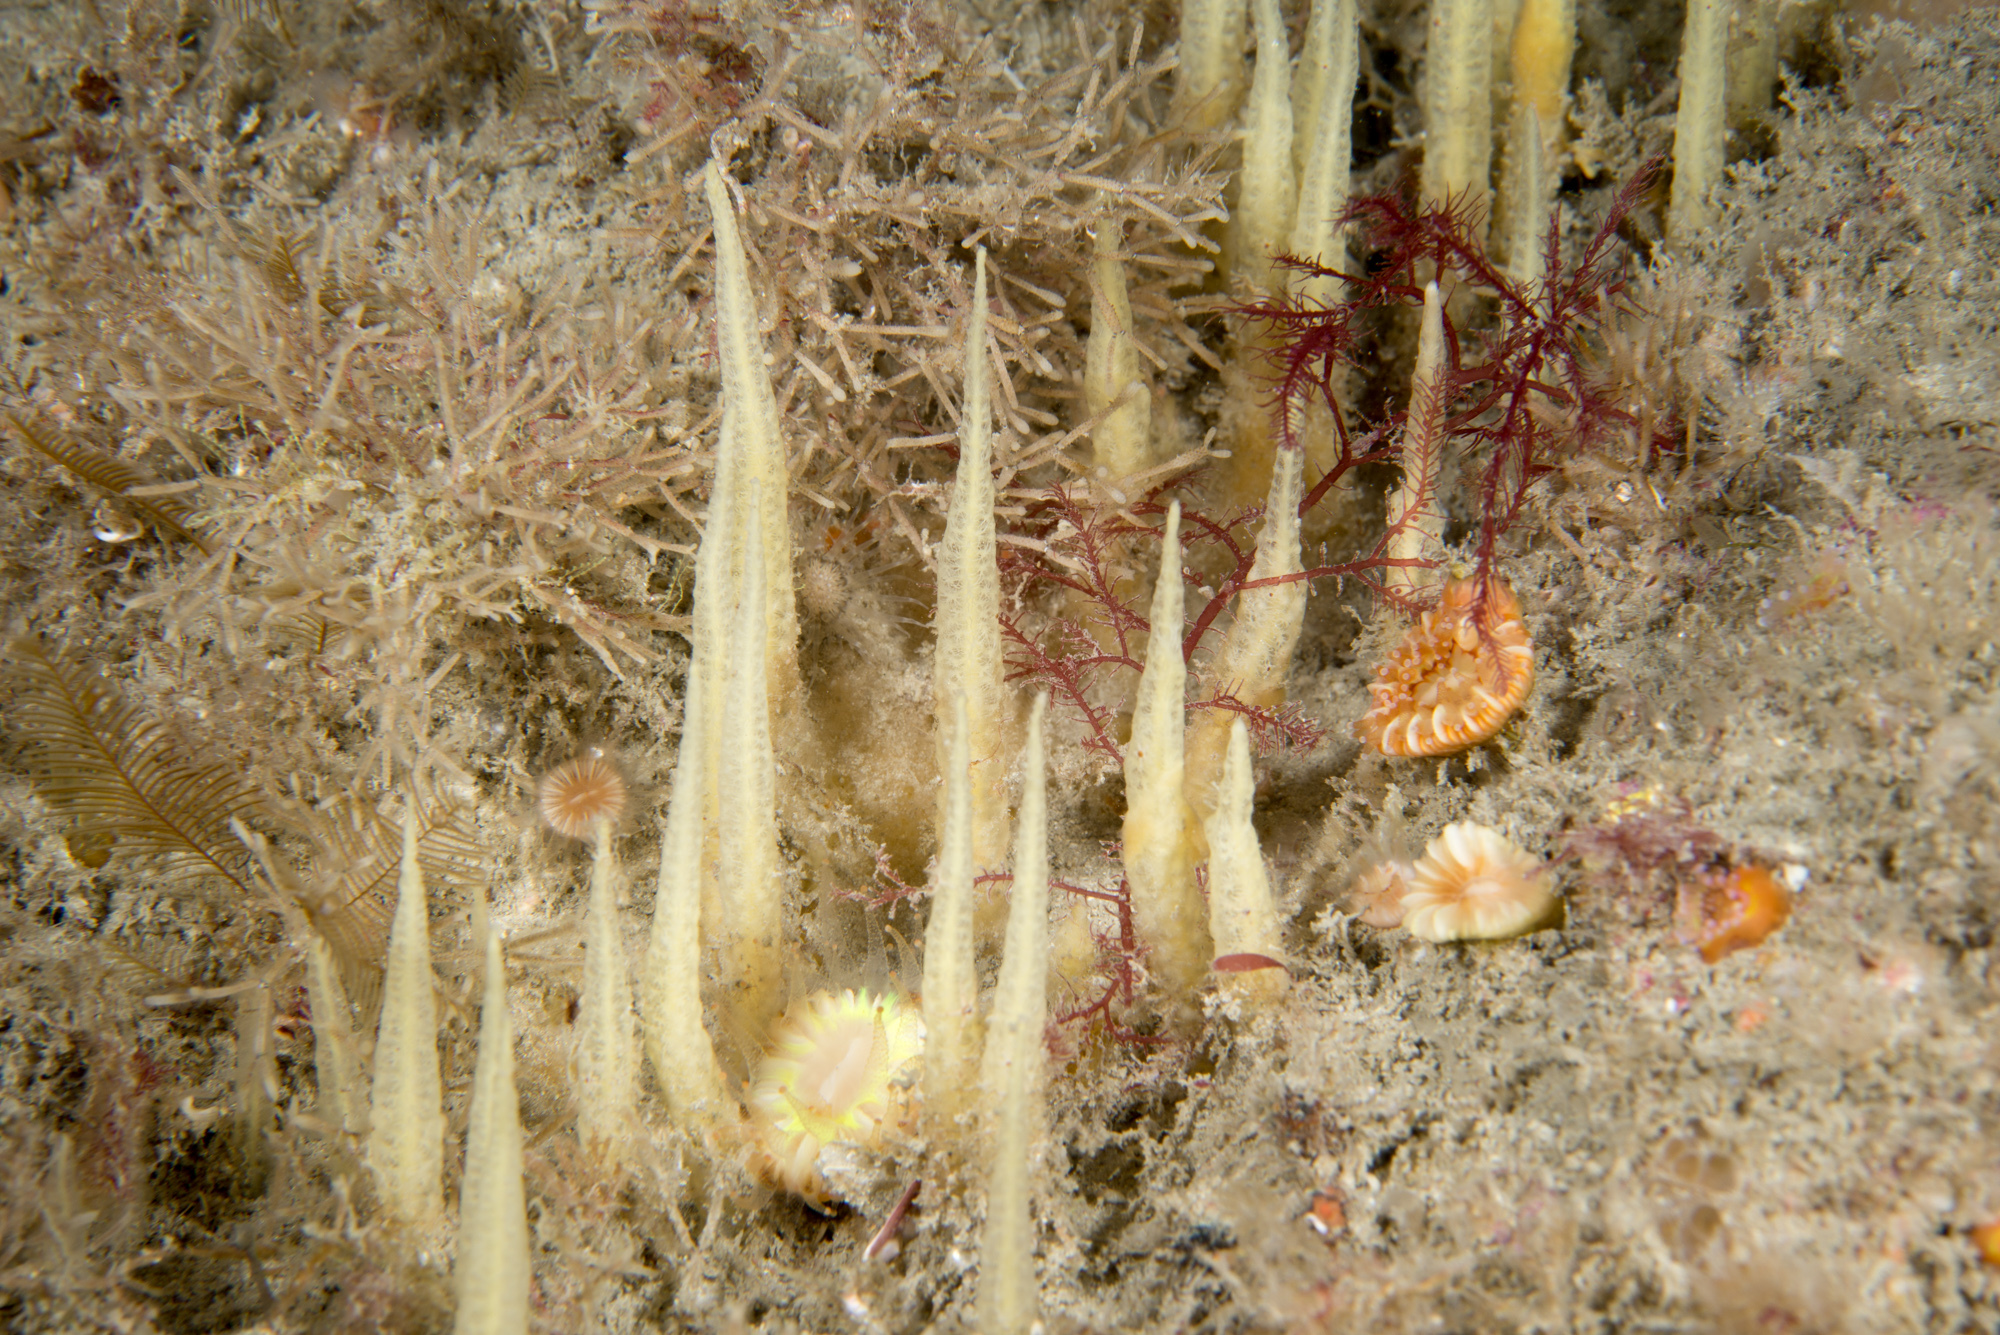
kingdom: Animalia
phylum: Porifera
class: Demospongiae
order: Suberitida
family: Halichondriidae
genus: Ciocalypta
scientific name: Ciocalypta penicillus
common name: Brush sponge
